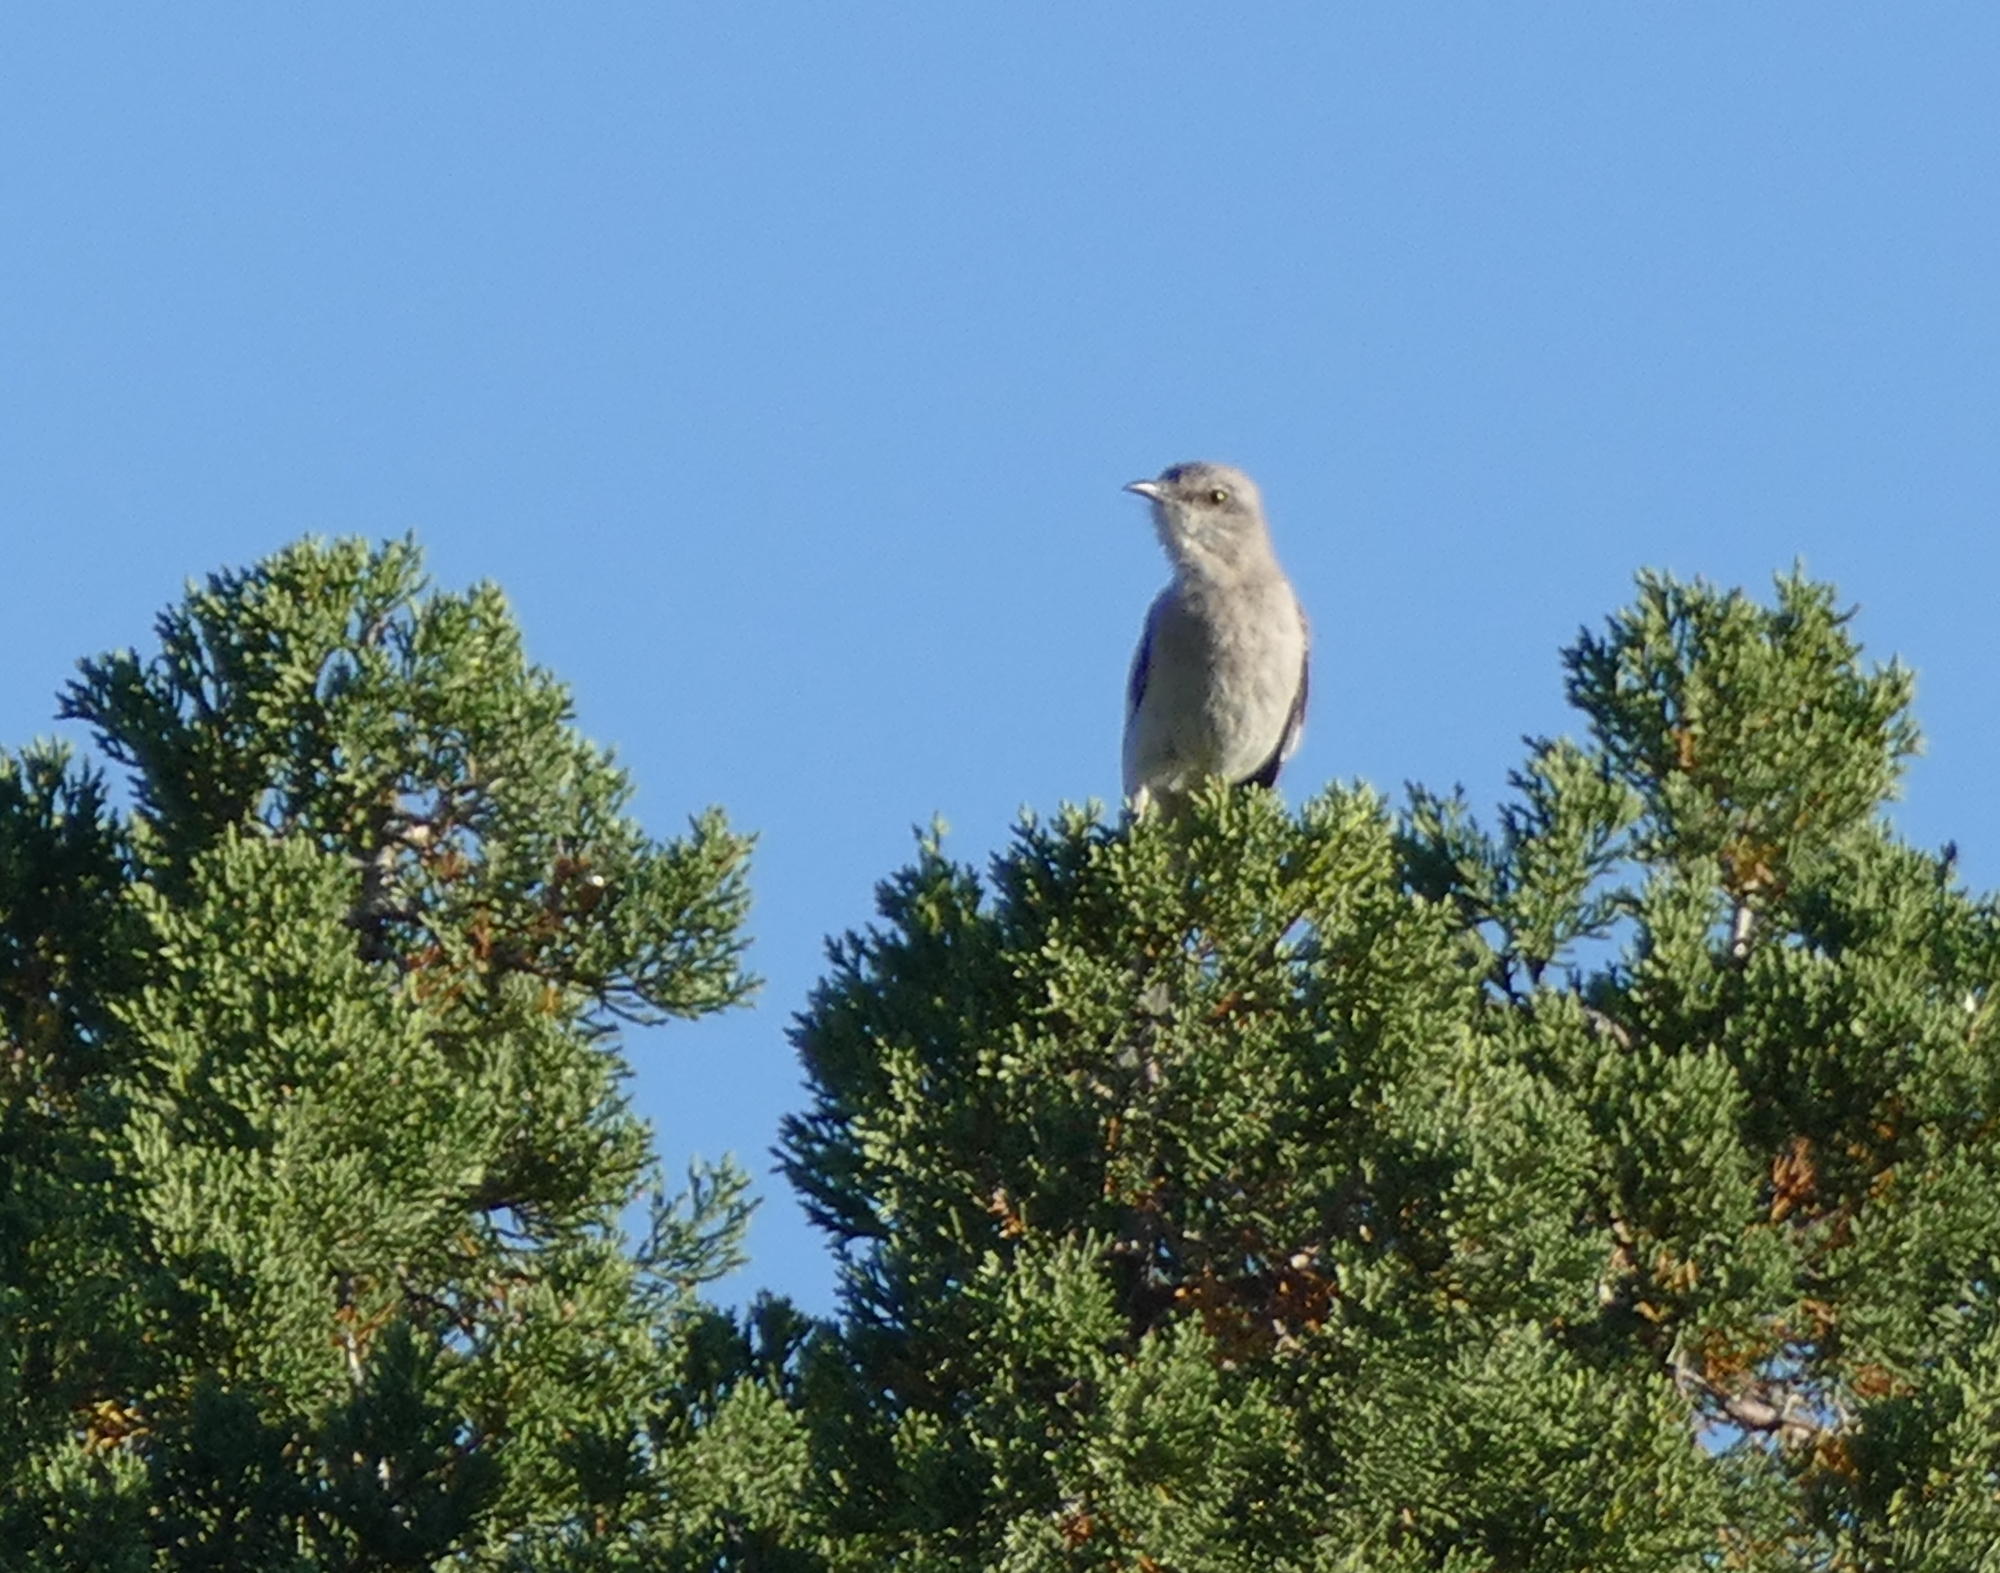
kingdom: Animalia
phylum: Chordata
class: Aves
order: Passeriformes
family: Mimidae
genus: Mimus
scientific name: Mimus polyglottos
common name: Northern mockingbird
